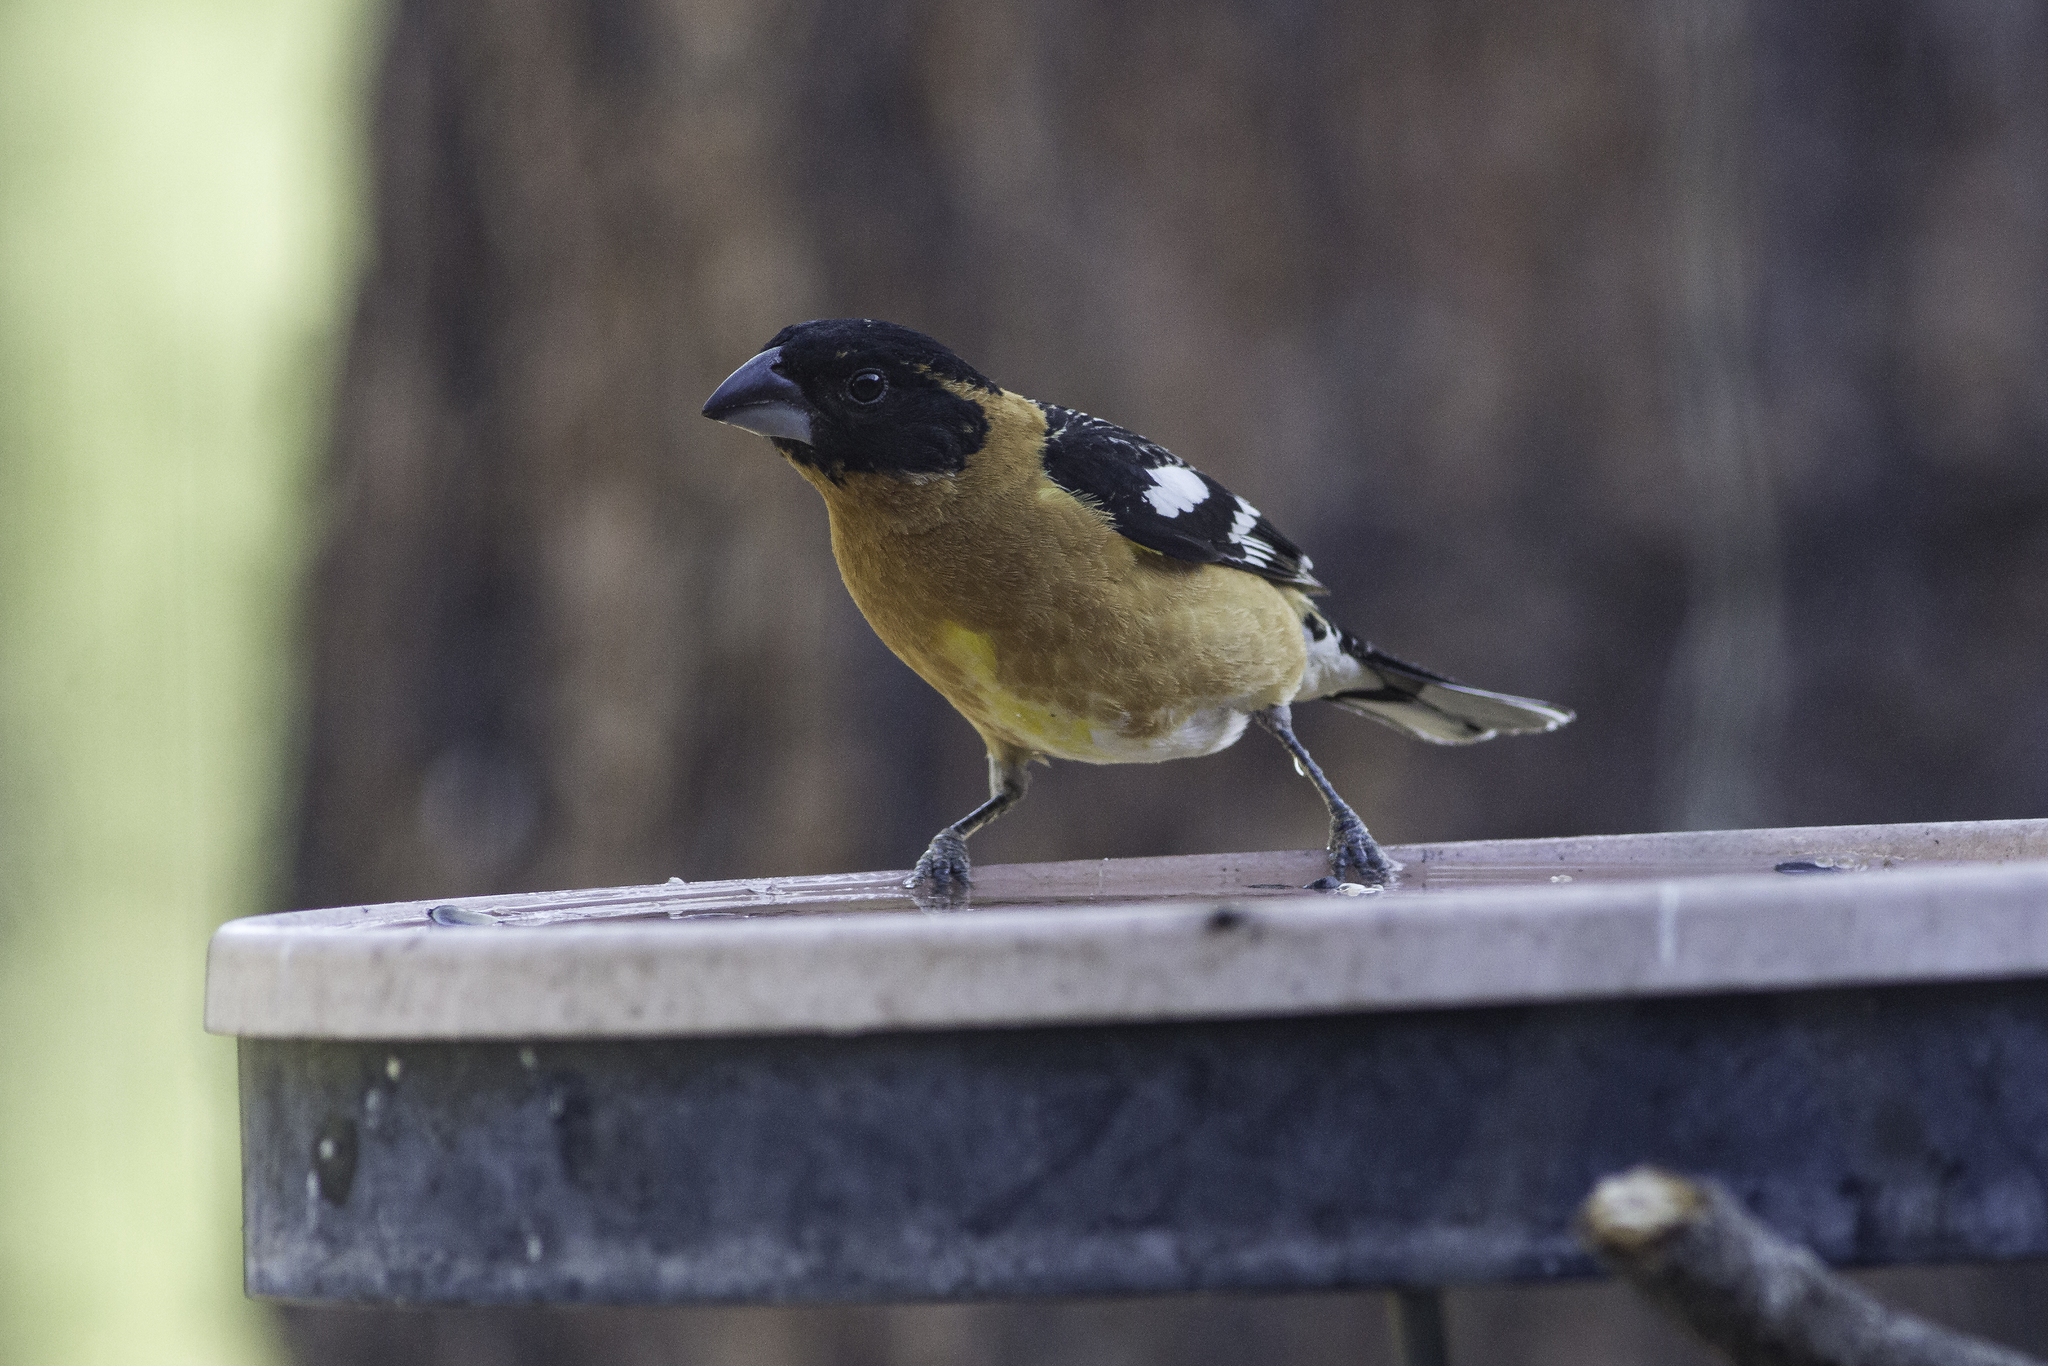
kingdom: Animalia
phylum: Chordata
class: Aves
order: Passeriformes
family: Cardinalidae
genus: Pheucticus
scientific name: Pheucticus melanocephalus
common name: Black-headed grosbeak
